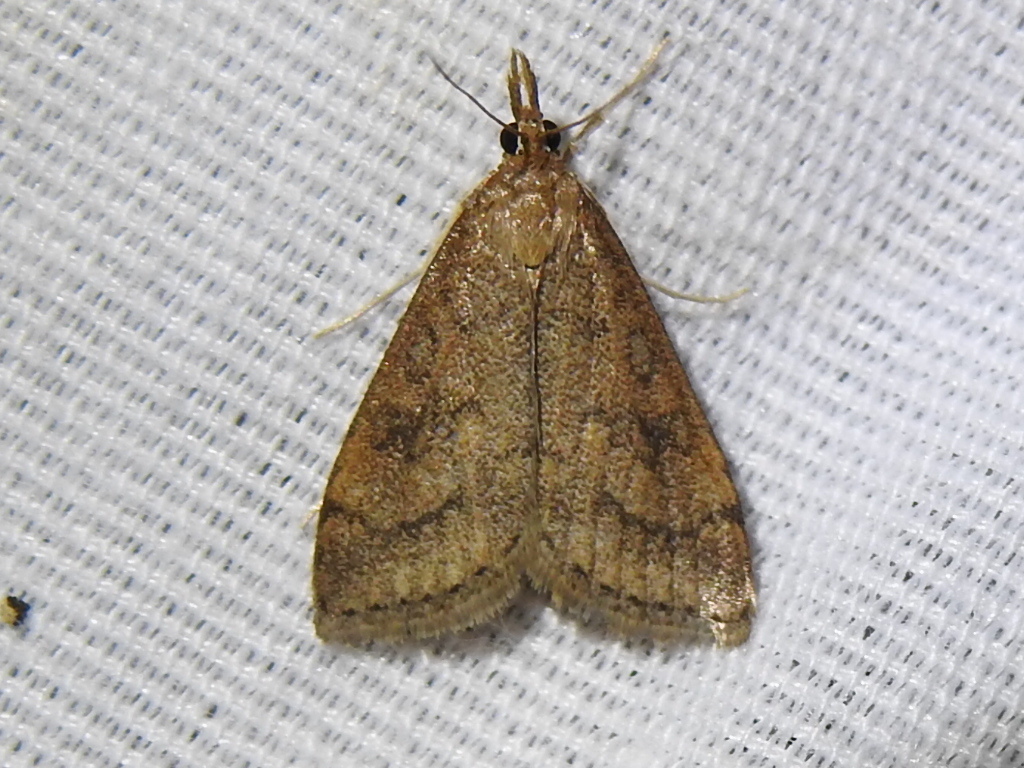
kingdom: Animalia
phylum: Arthropoda
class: Insecta
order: Lepidoptera
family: Crambidae
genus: Udea
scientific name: Udea rubigalis
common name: Celery leaftier moth
